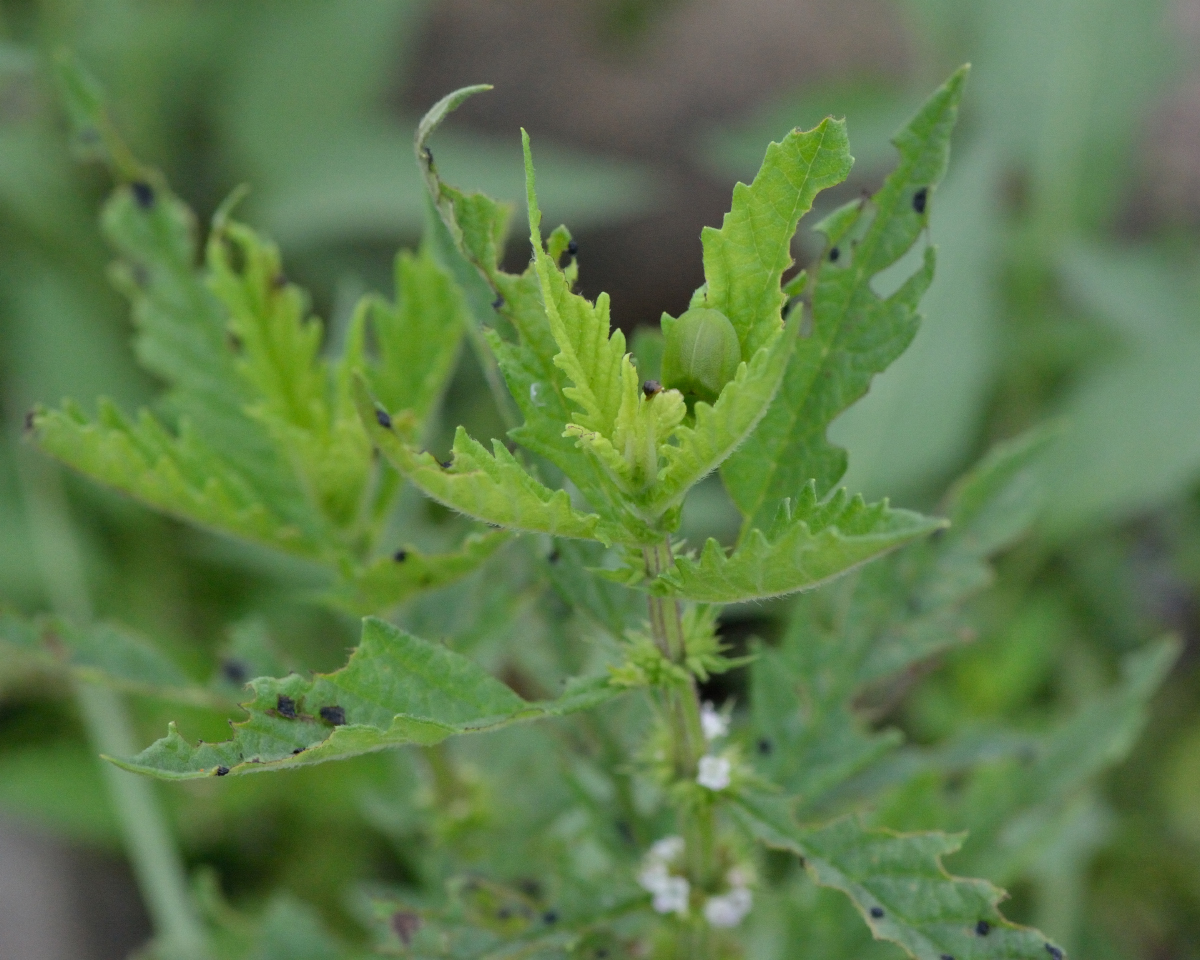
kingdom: Plantae
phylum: Tracheophyta
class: Magnoliopsida
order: Lamiales
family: Lamiaceae
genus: Lycopus
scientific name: Lycopus europaeus
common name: European bugleweed
